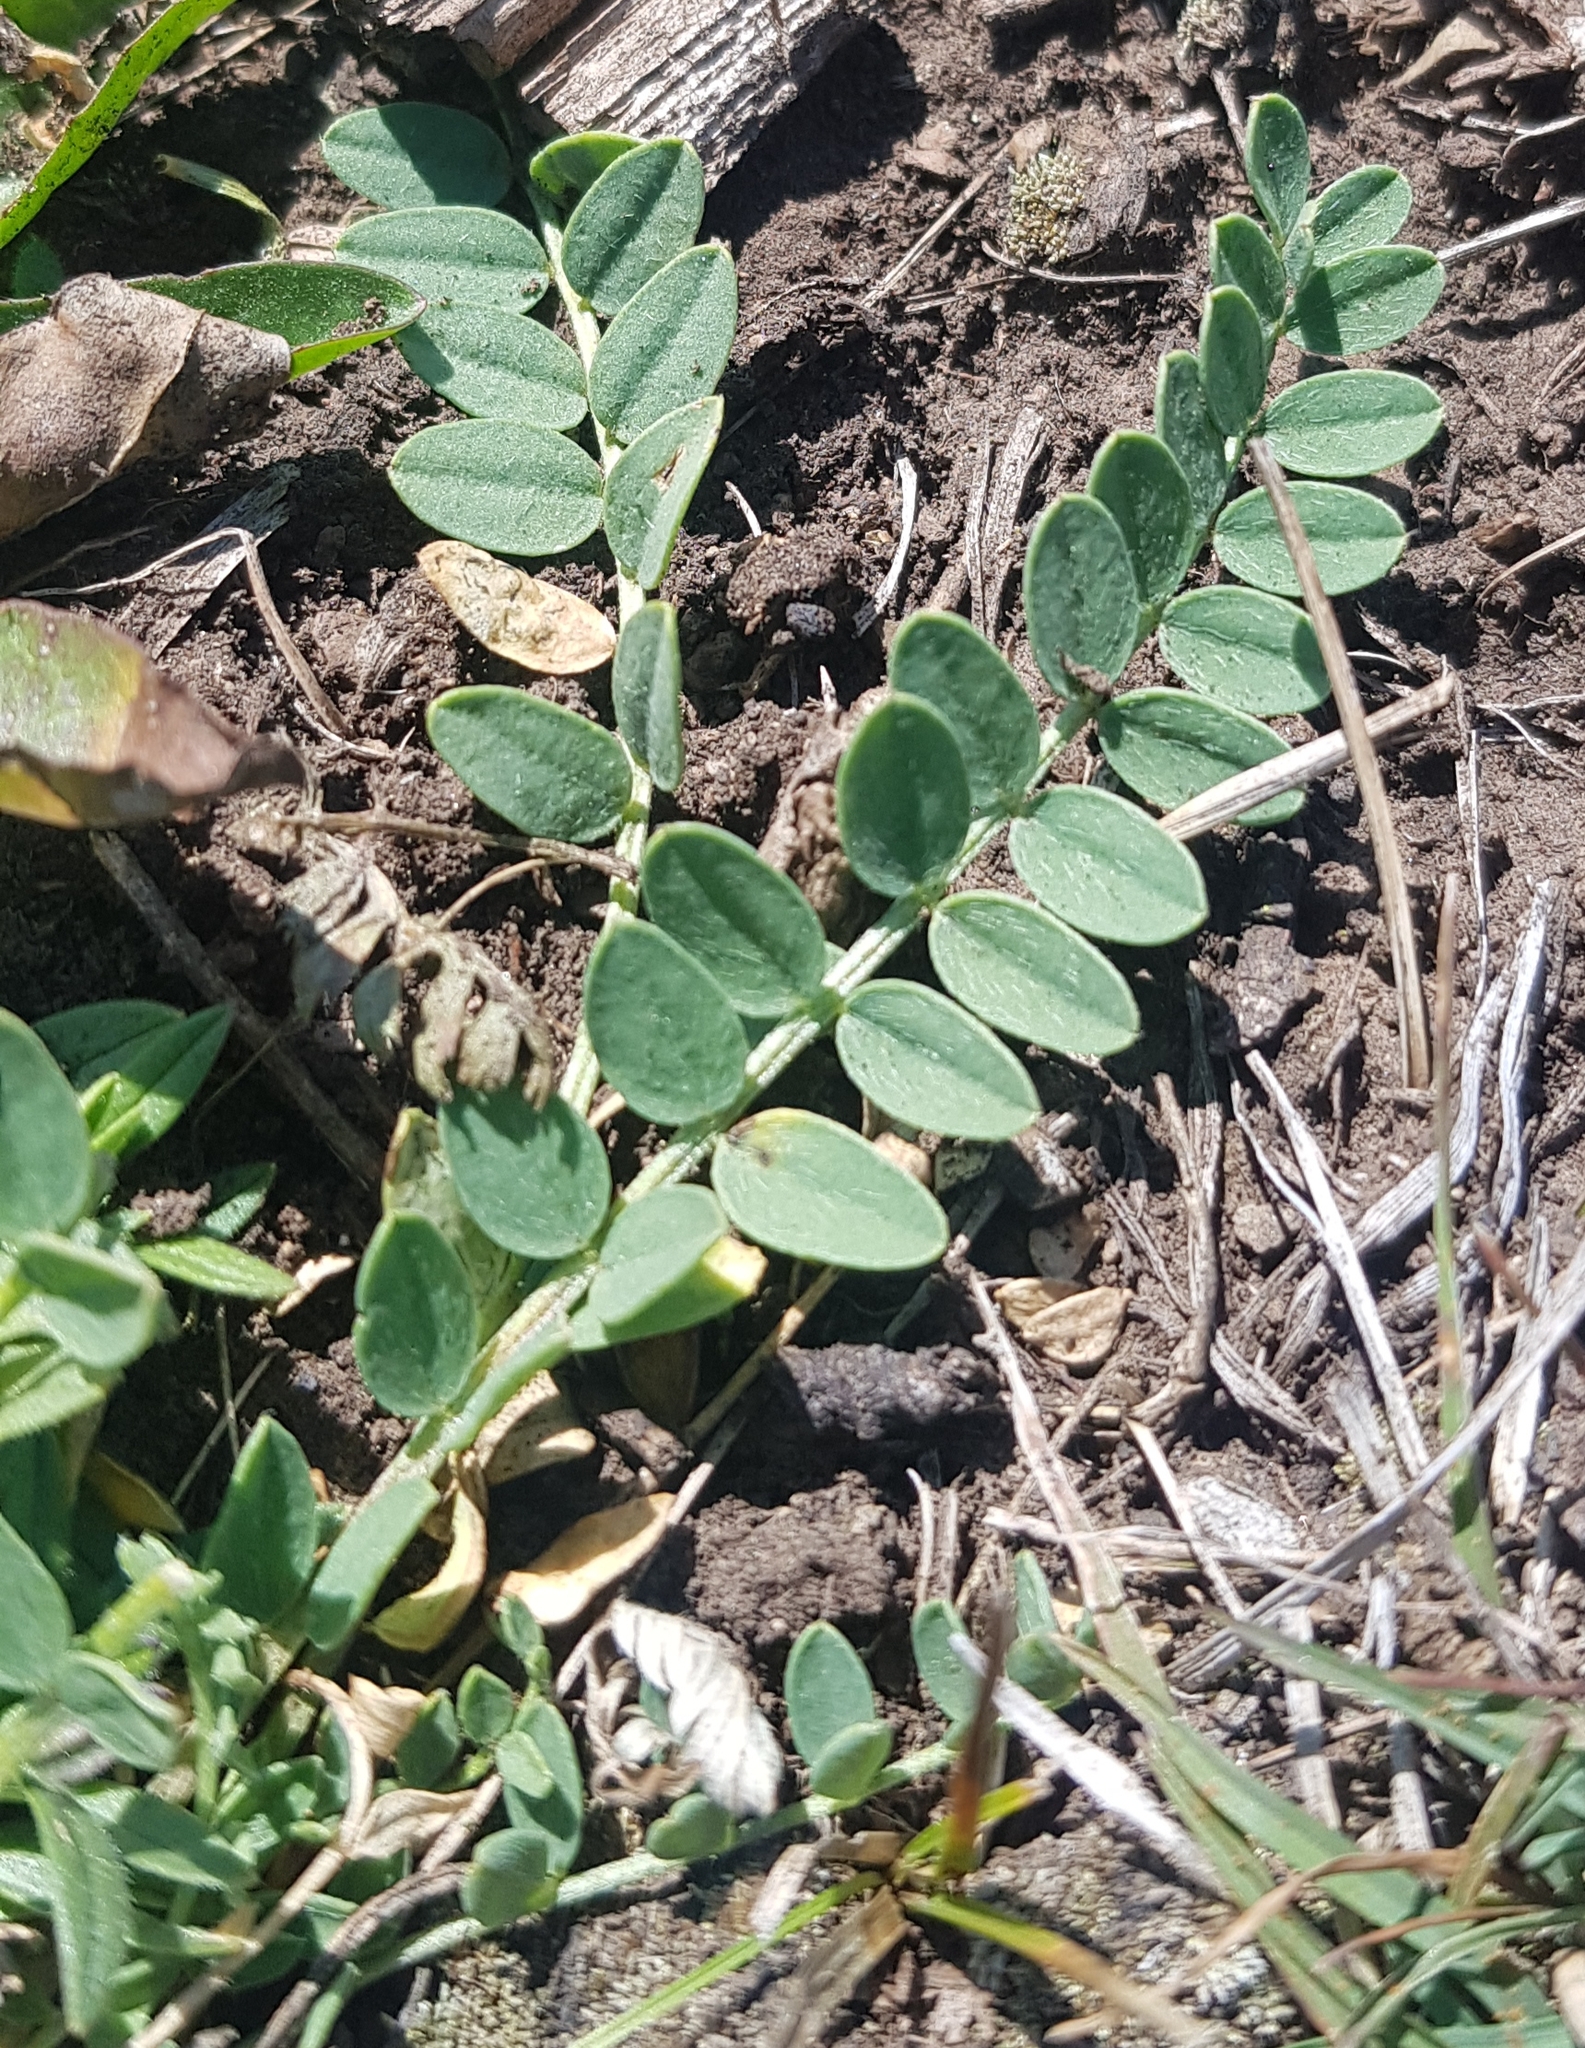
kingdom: Plantae
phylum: Tracheophyta
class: Magnoliopsida
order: Fabales
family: Fabaceae
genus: Astragalus
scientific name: Astragalus laxmannii
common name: Laxmann's milk-vetch
